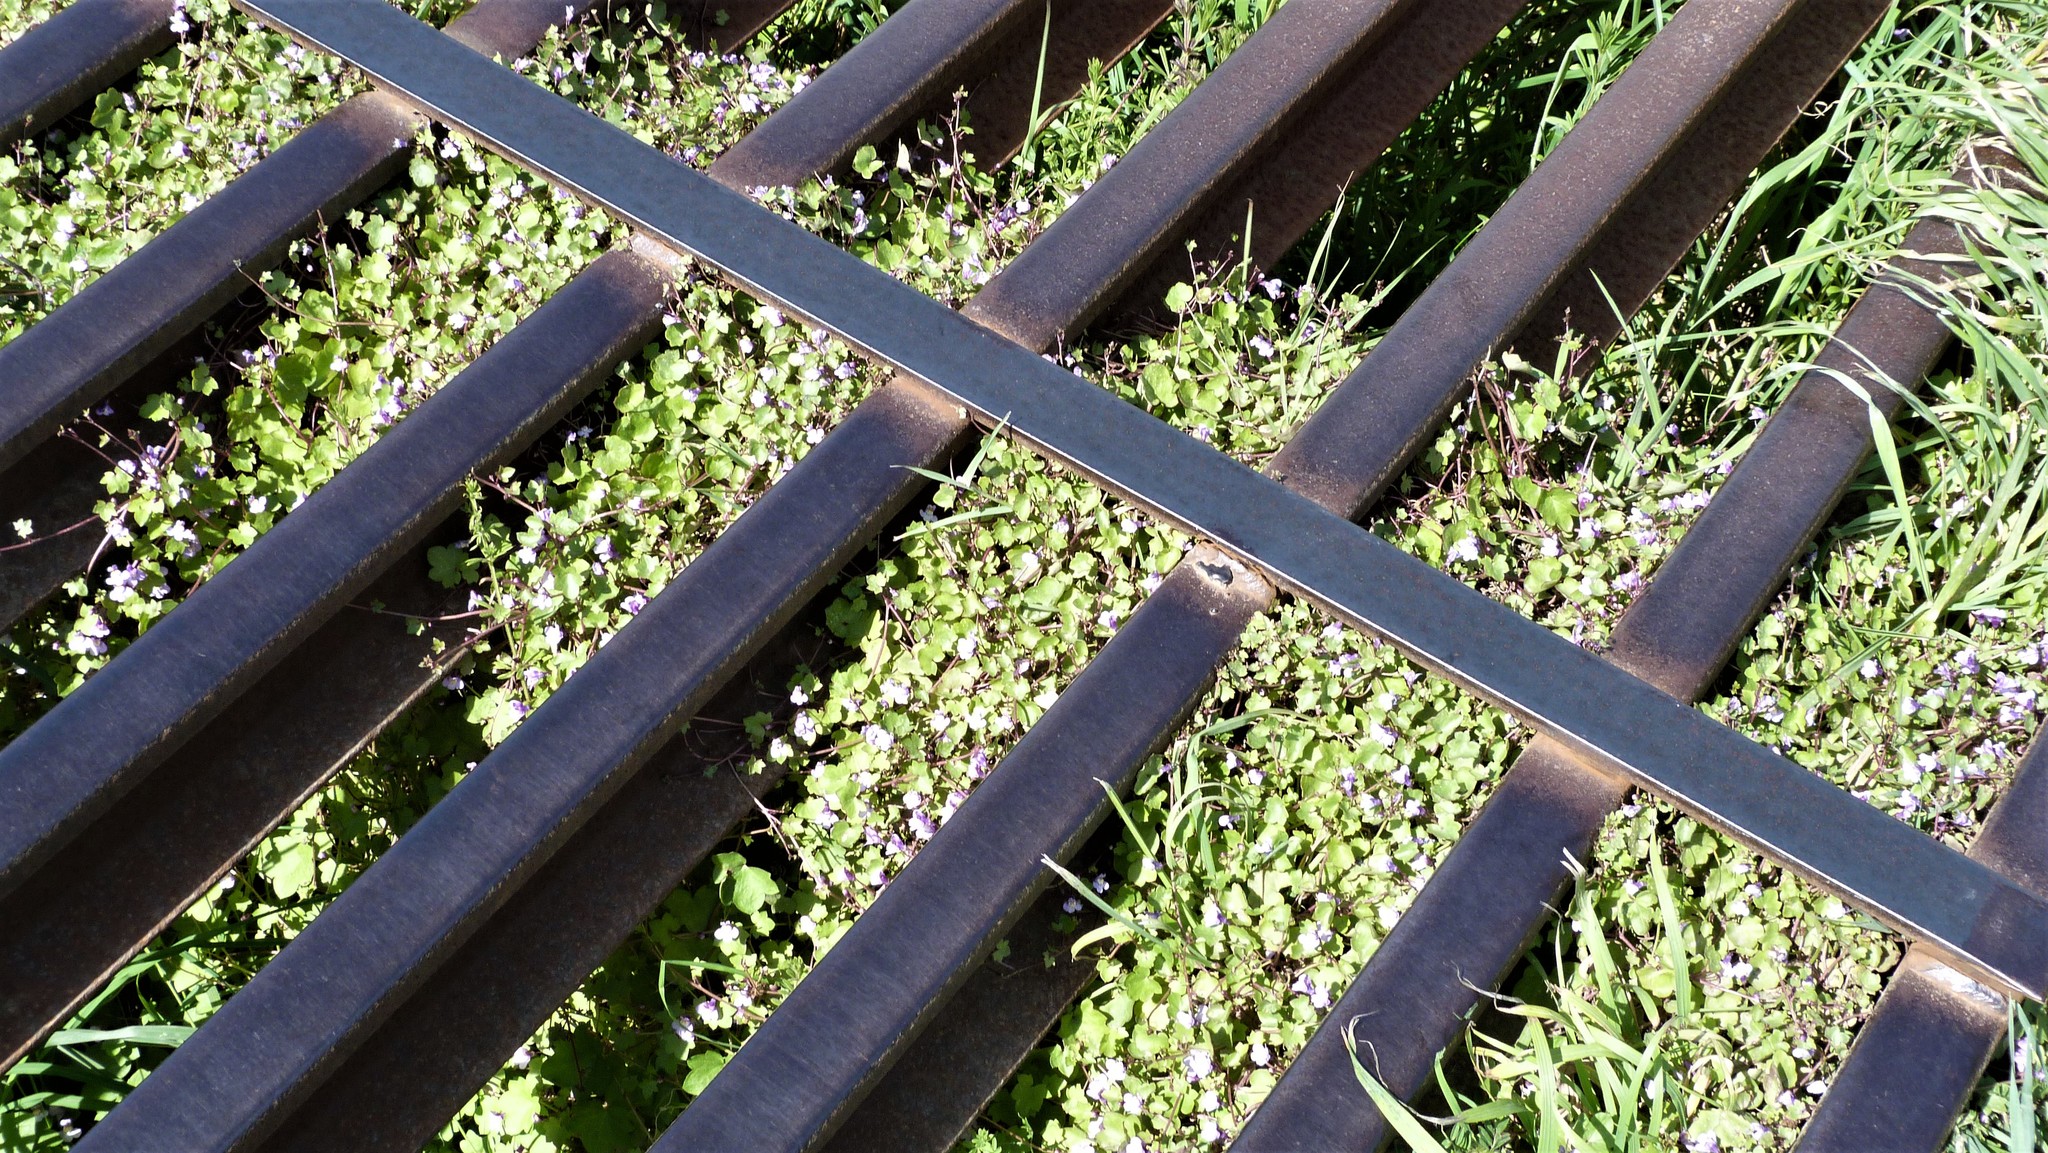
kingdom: Plantae
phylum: Tracheophyta
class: Magnoliopsida
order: Lamiales
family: Plantaginaceae
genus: Cymbalaria
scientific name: Cymbalaria muralis
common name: Ivy-leaved toadflax
